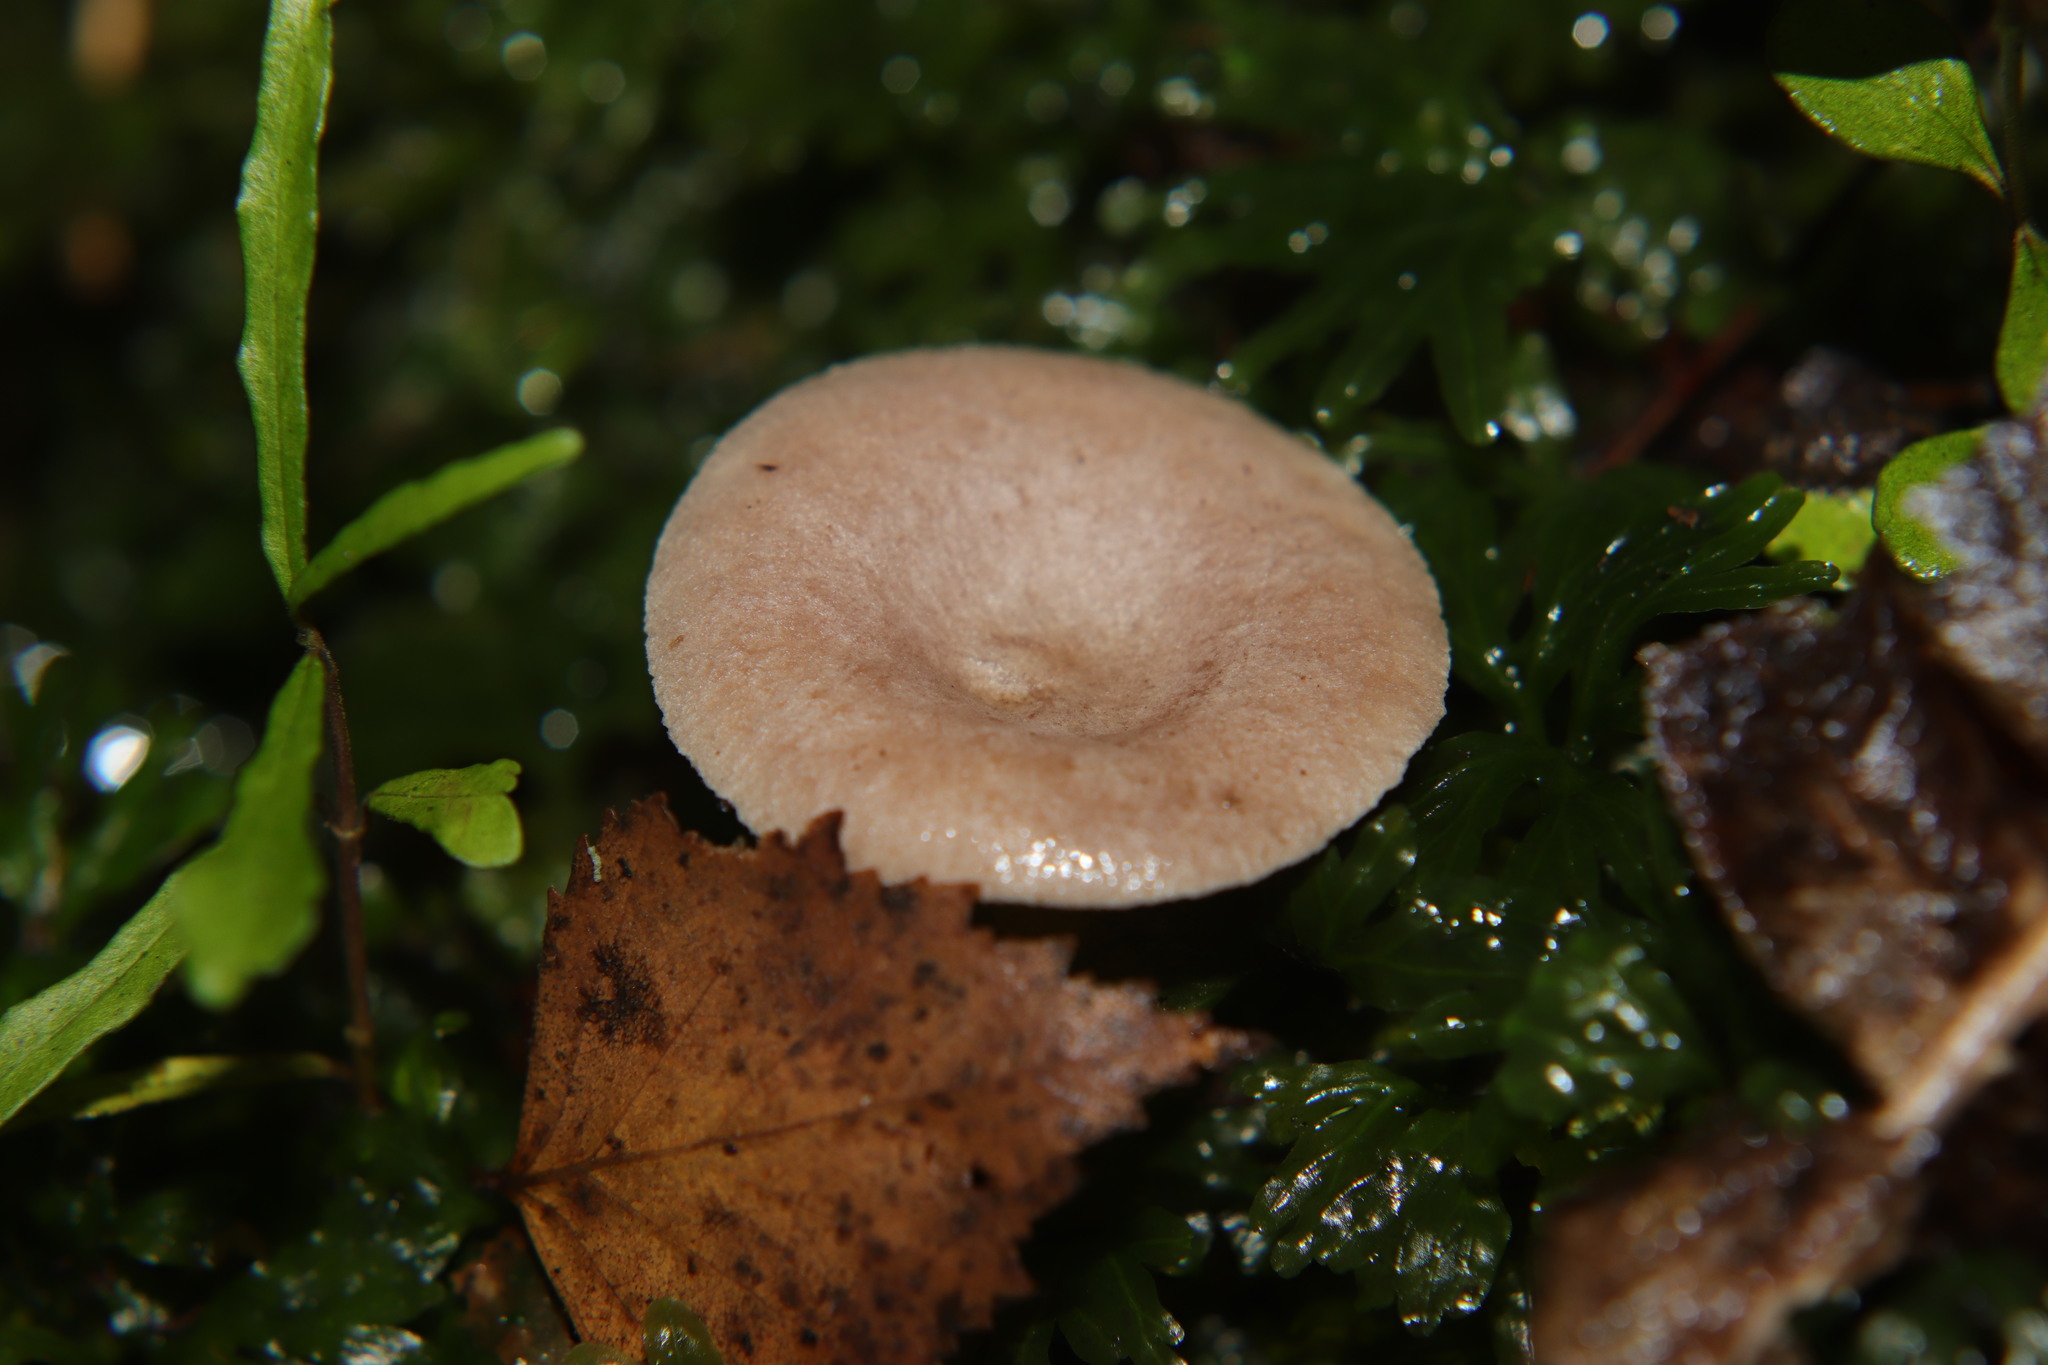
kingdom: Fungi
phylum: Basidiomycota
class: Agaricomycetes
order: Russulales
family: Russulaceae
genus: Lactarius
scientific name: Lactarius glyciosmus
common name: Coconut milkcap
